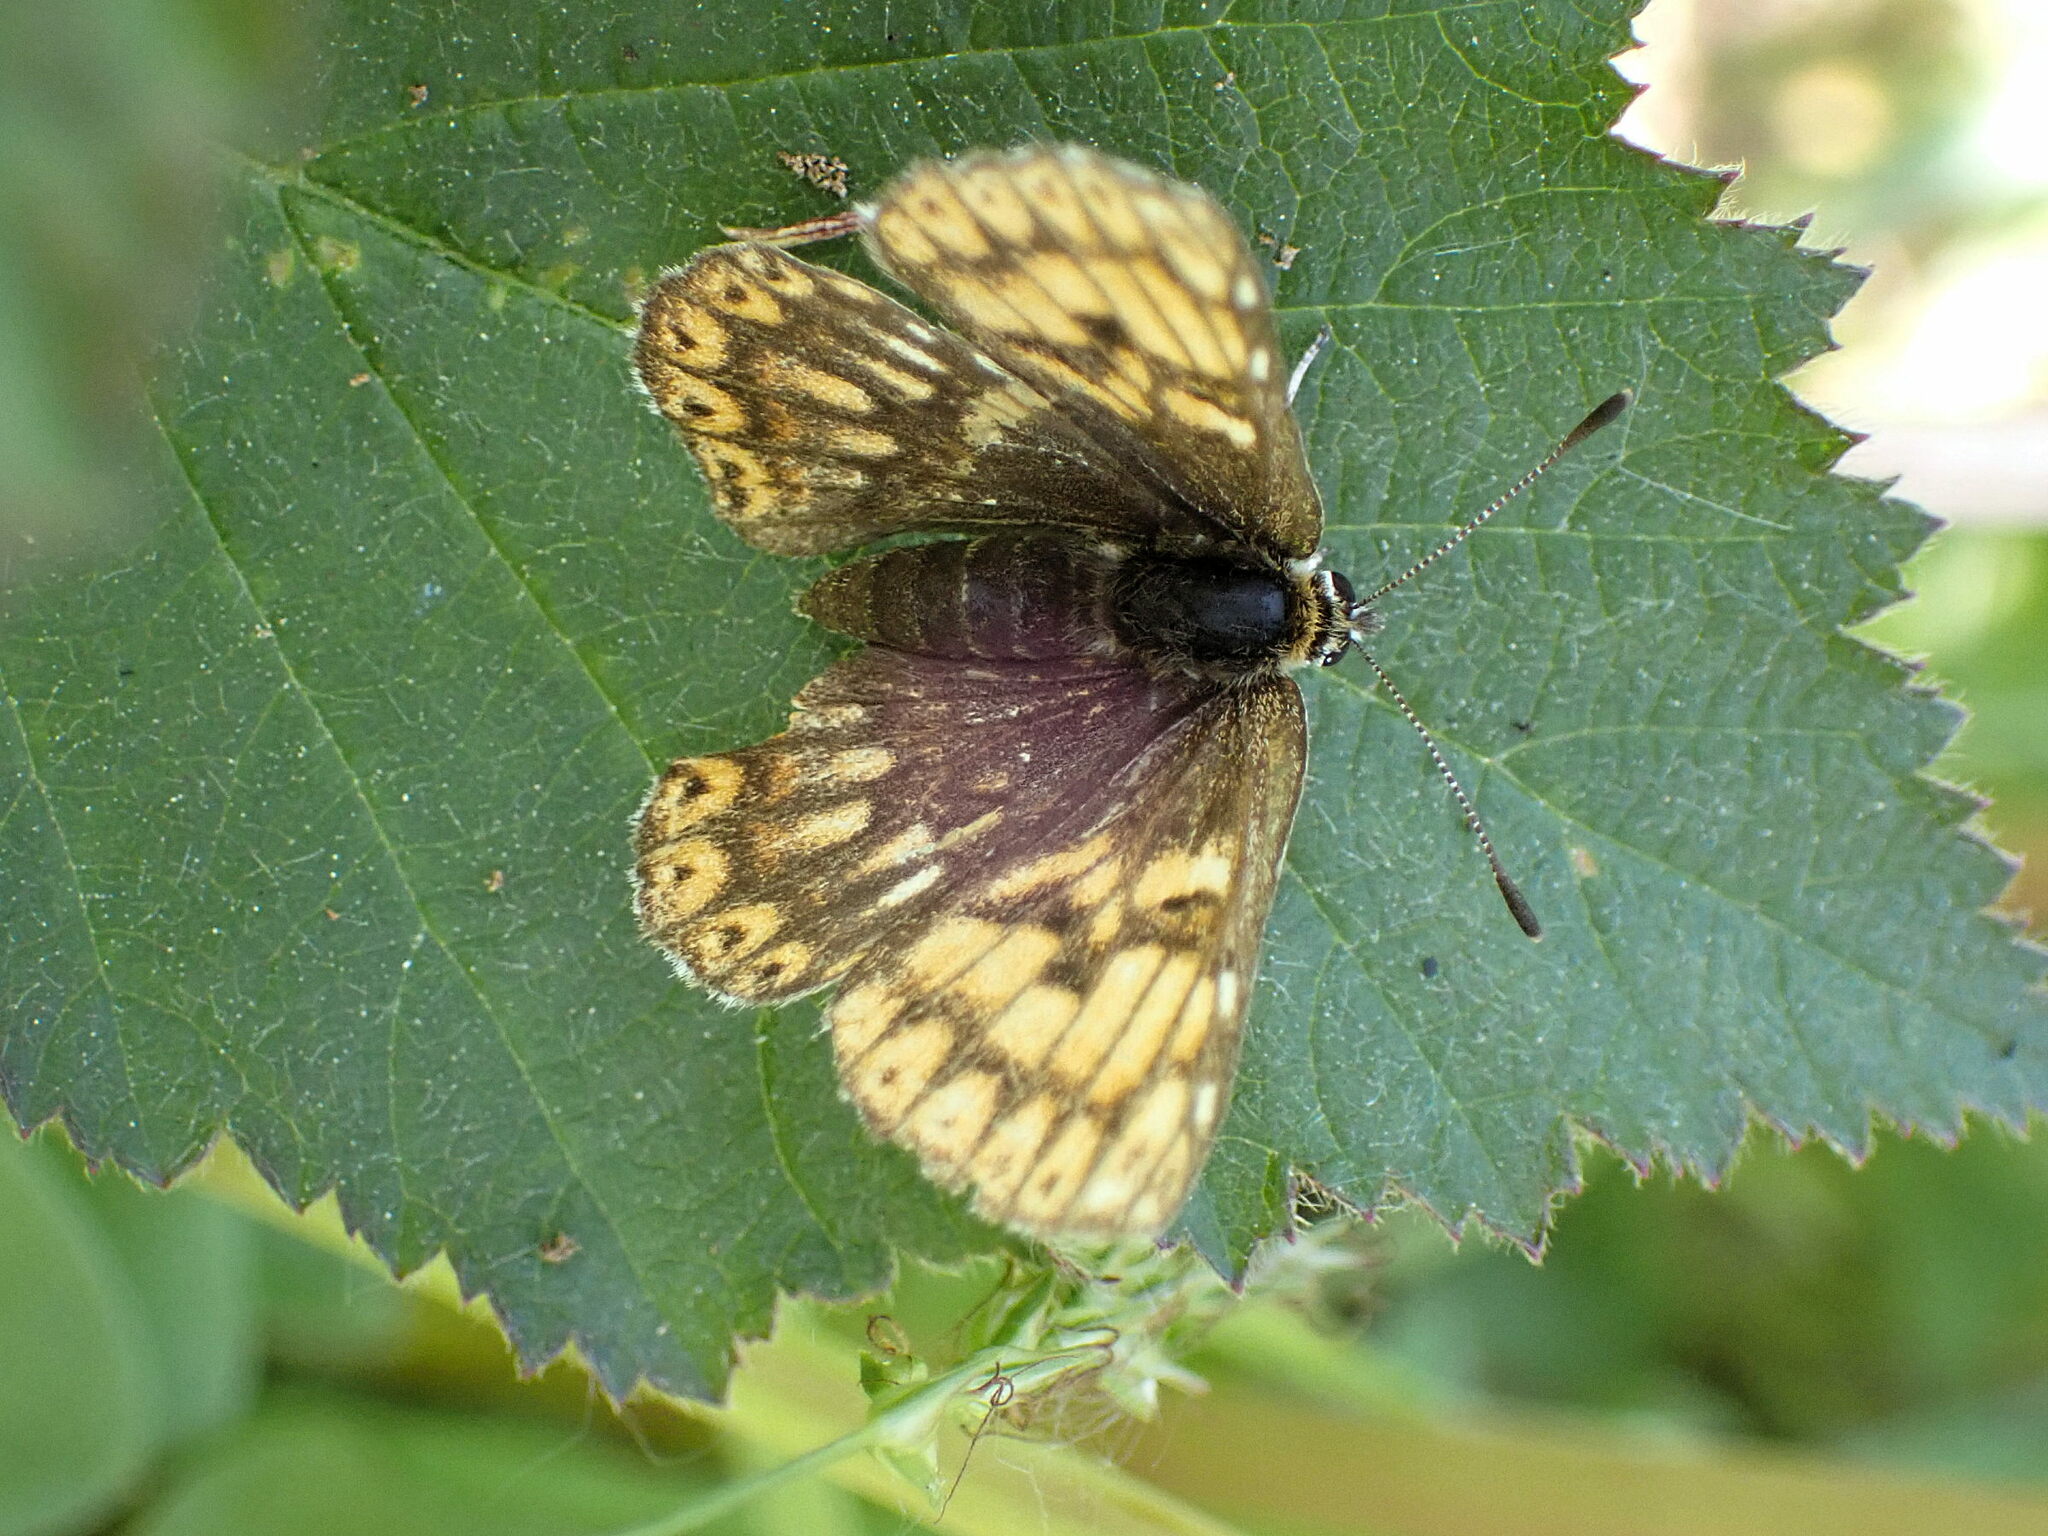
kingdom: Animalia
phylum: Arthropoda
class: Insecta
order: Lepidoptera
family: Riodinidae
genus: Hamearis
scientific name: Hamearis lucina
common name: Duke of burgundy fritillary
